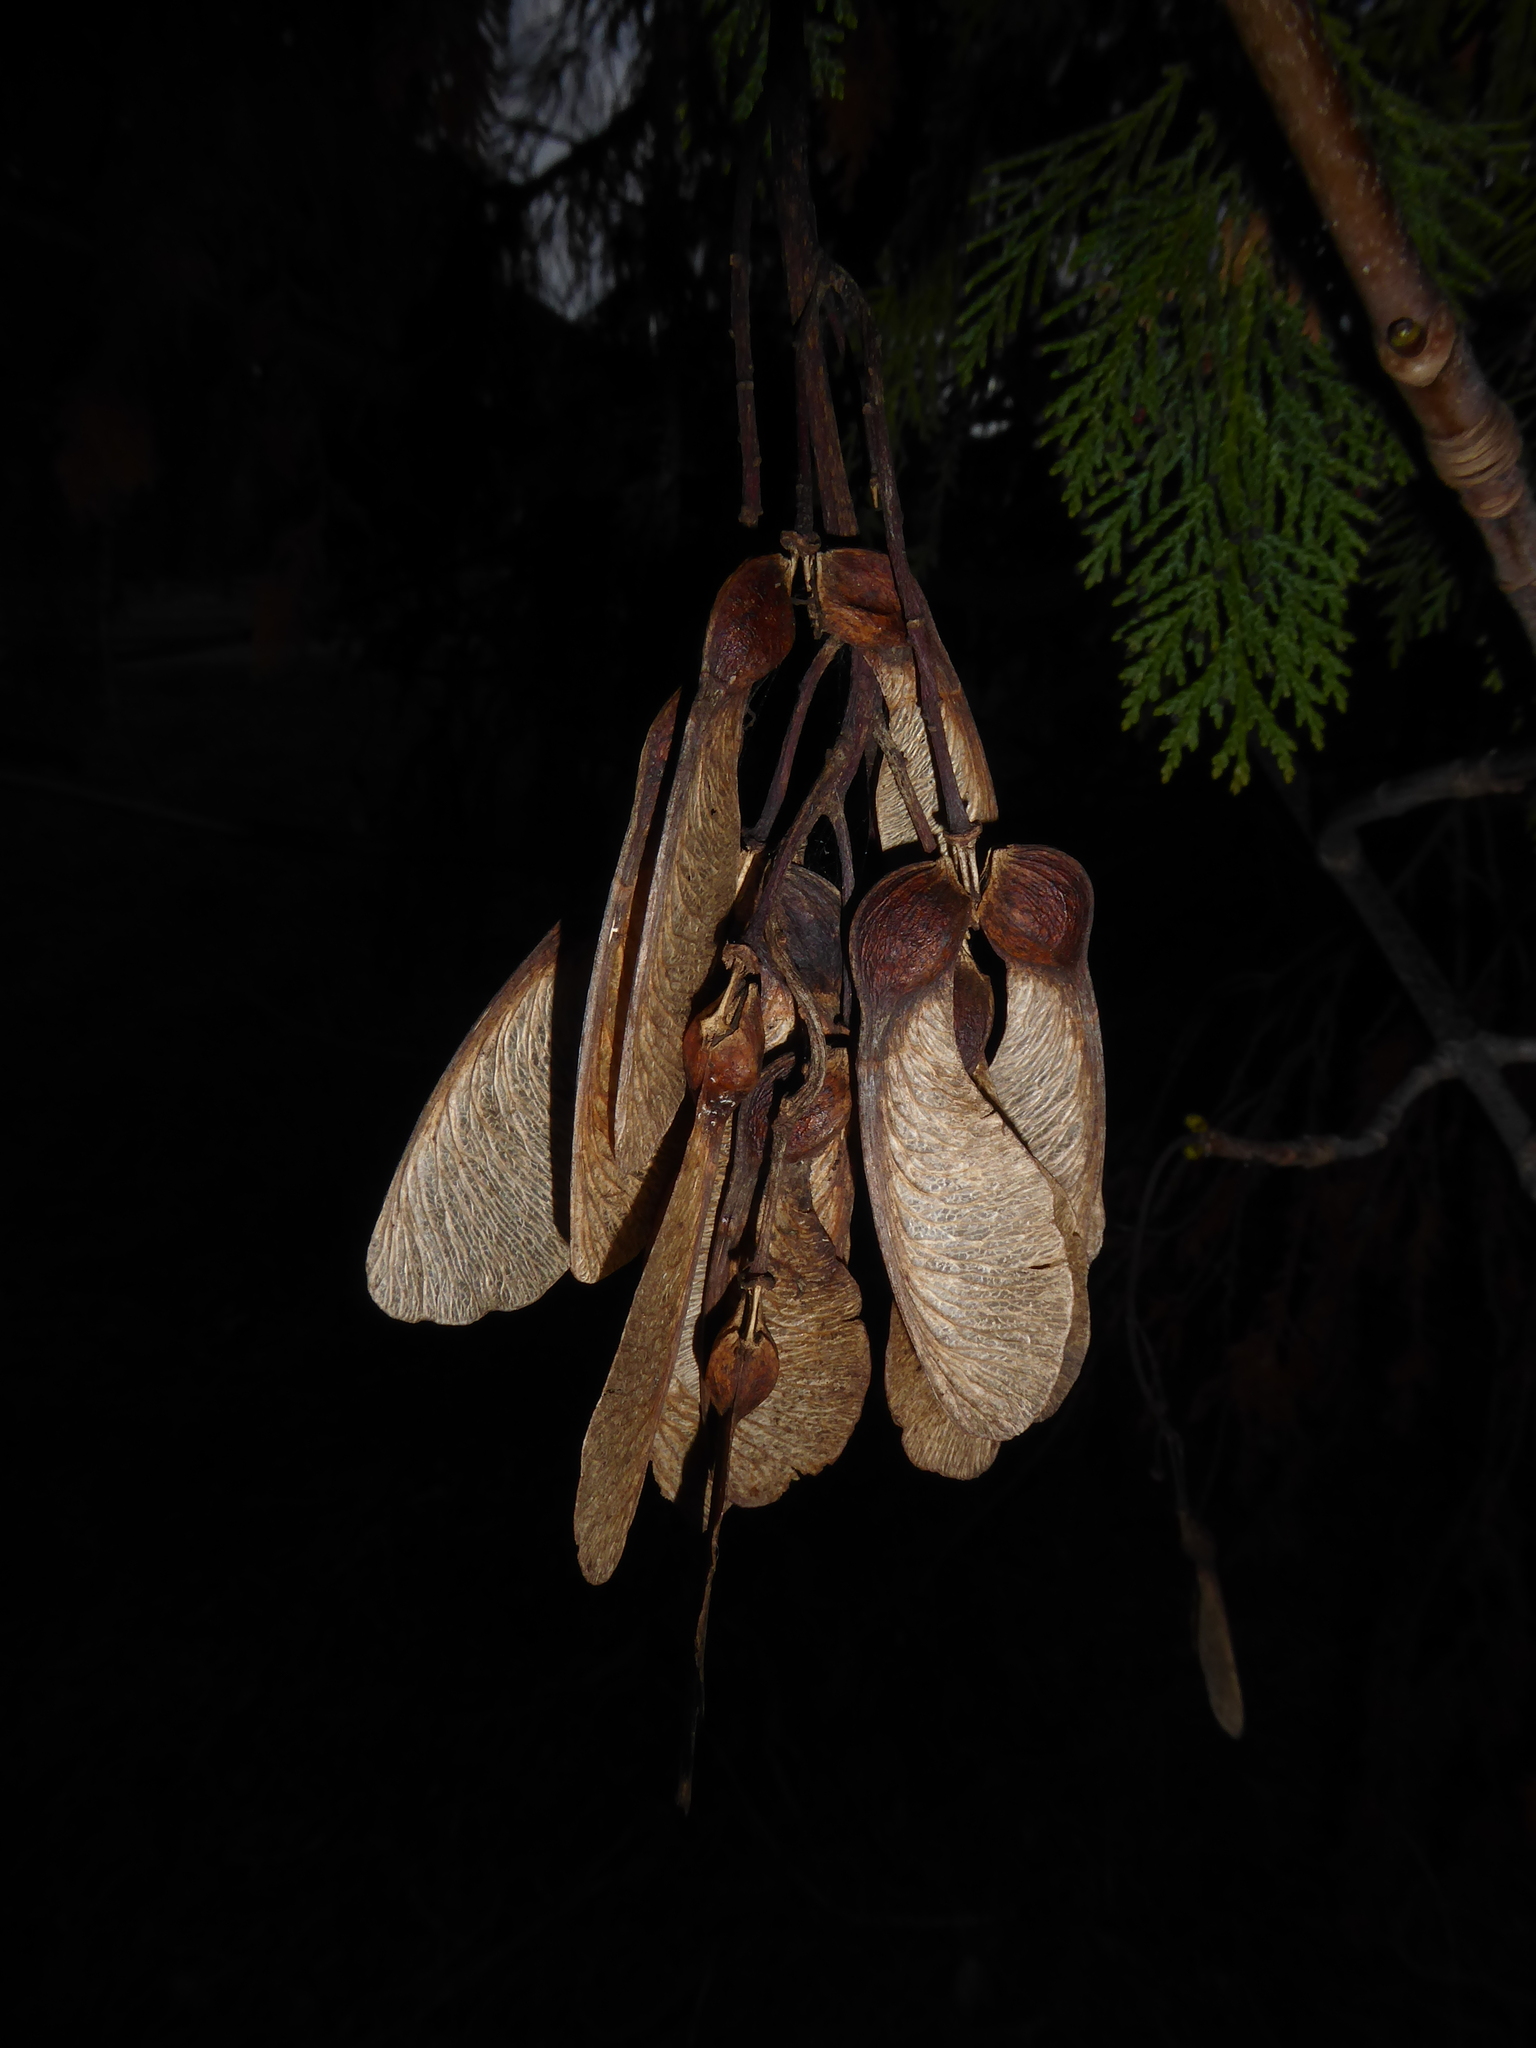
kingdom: Plantae
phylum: Tracheophyta
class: Magnoliopsida
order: Sapindales
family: Sapindaceae
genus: Acer
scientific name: Acer pseudoplatanus
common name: Sycamore
